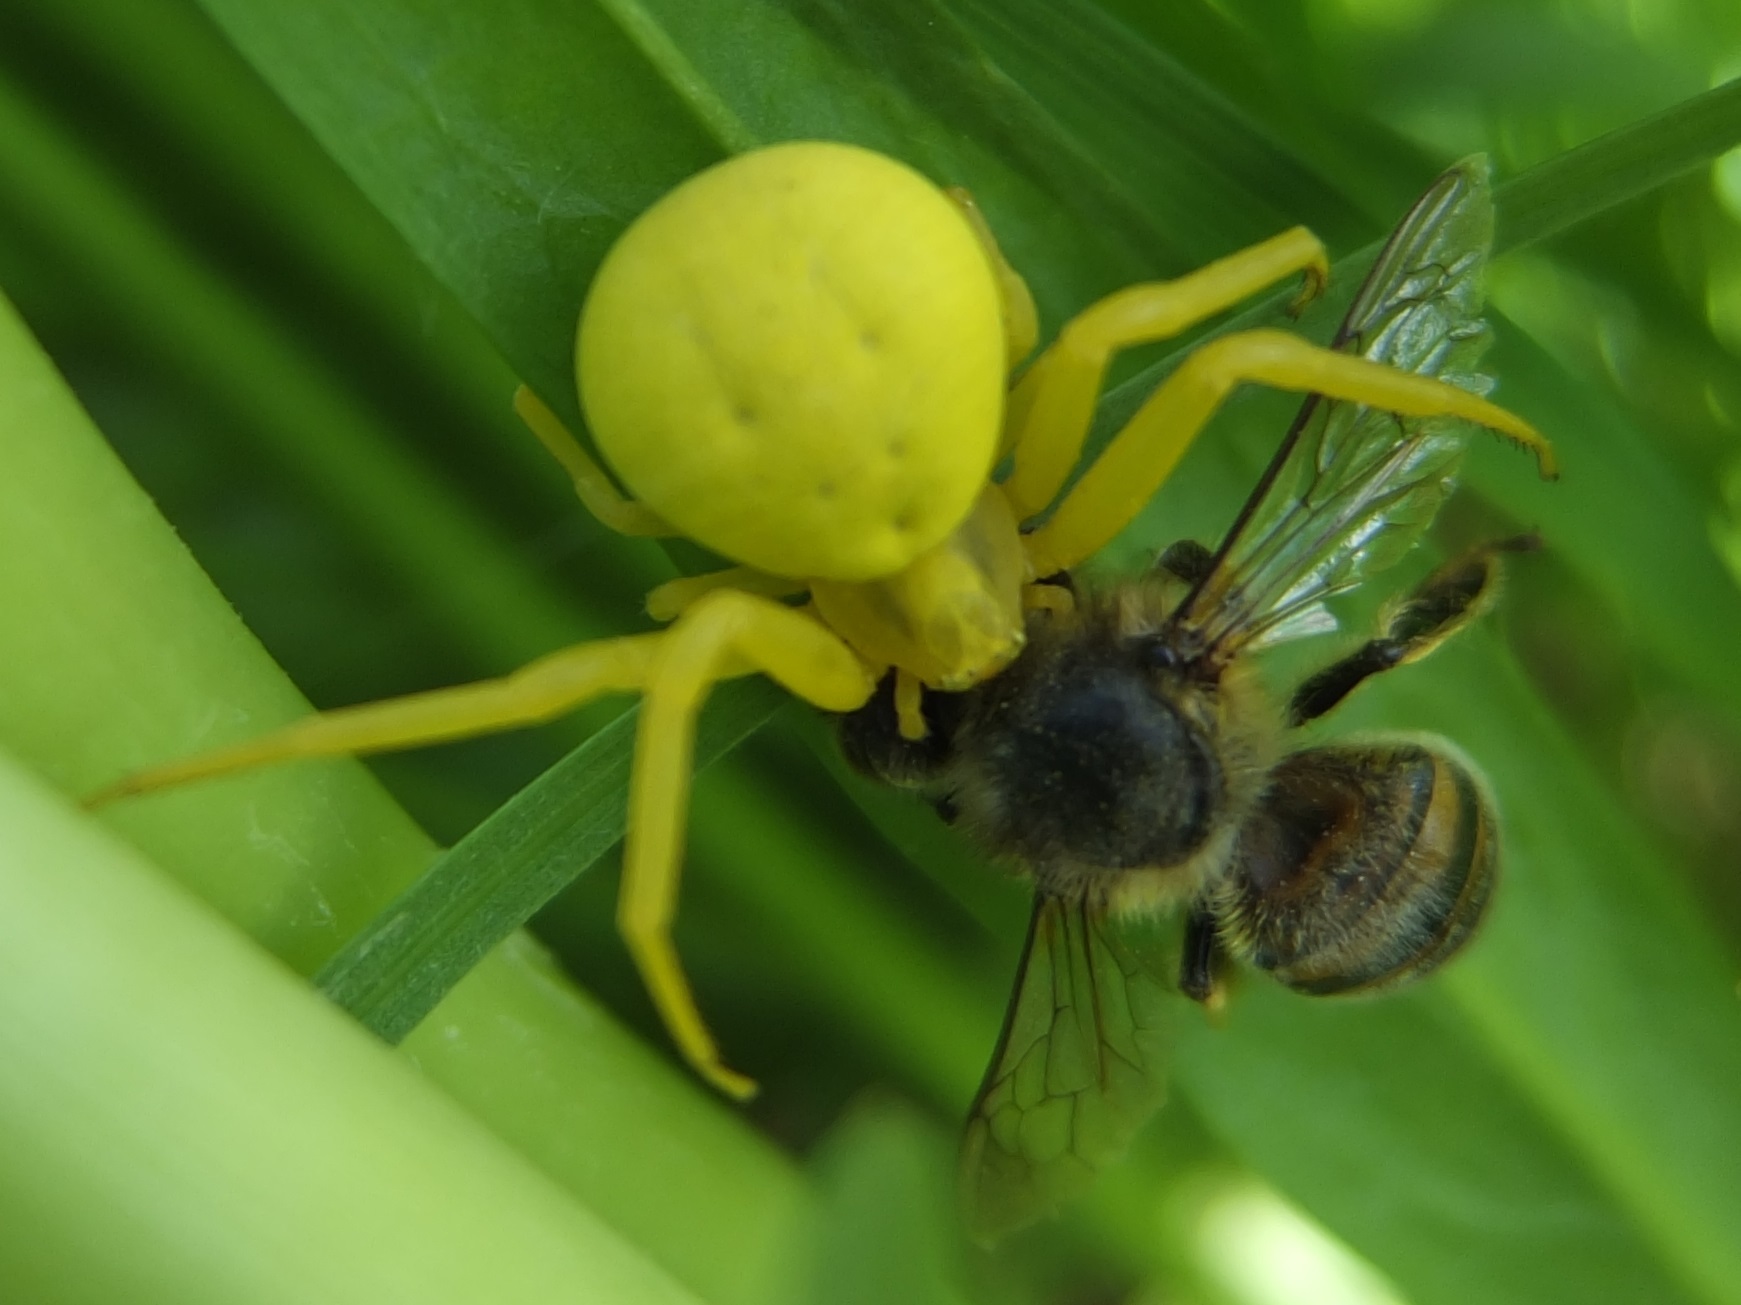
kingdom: Animalia
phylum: Arthropoda
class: Arachnida
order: Araneae
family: Thomisidae
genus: Misumena
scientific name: Misumena vatia
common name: Goldenrod crab spider
